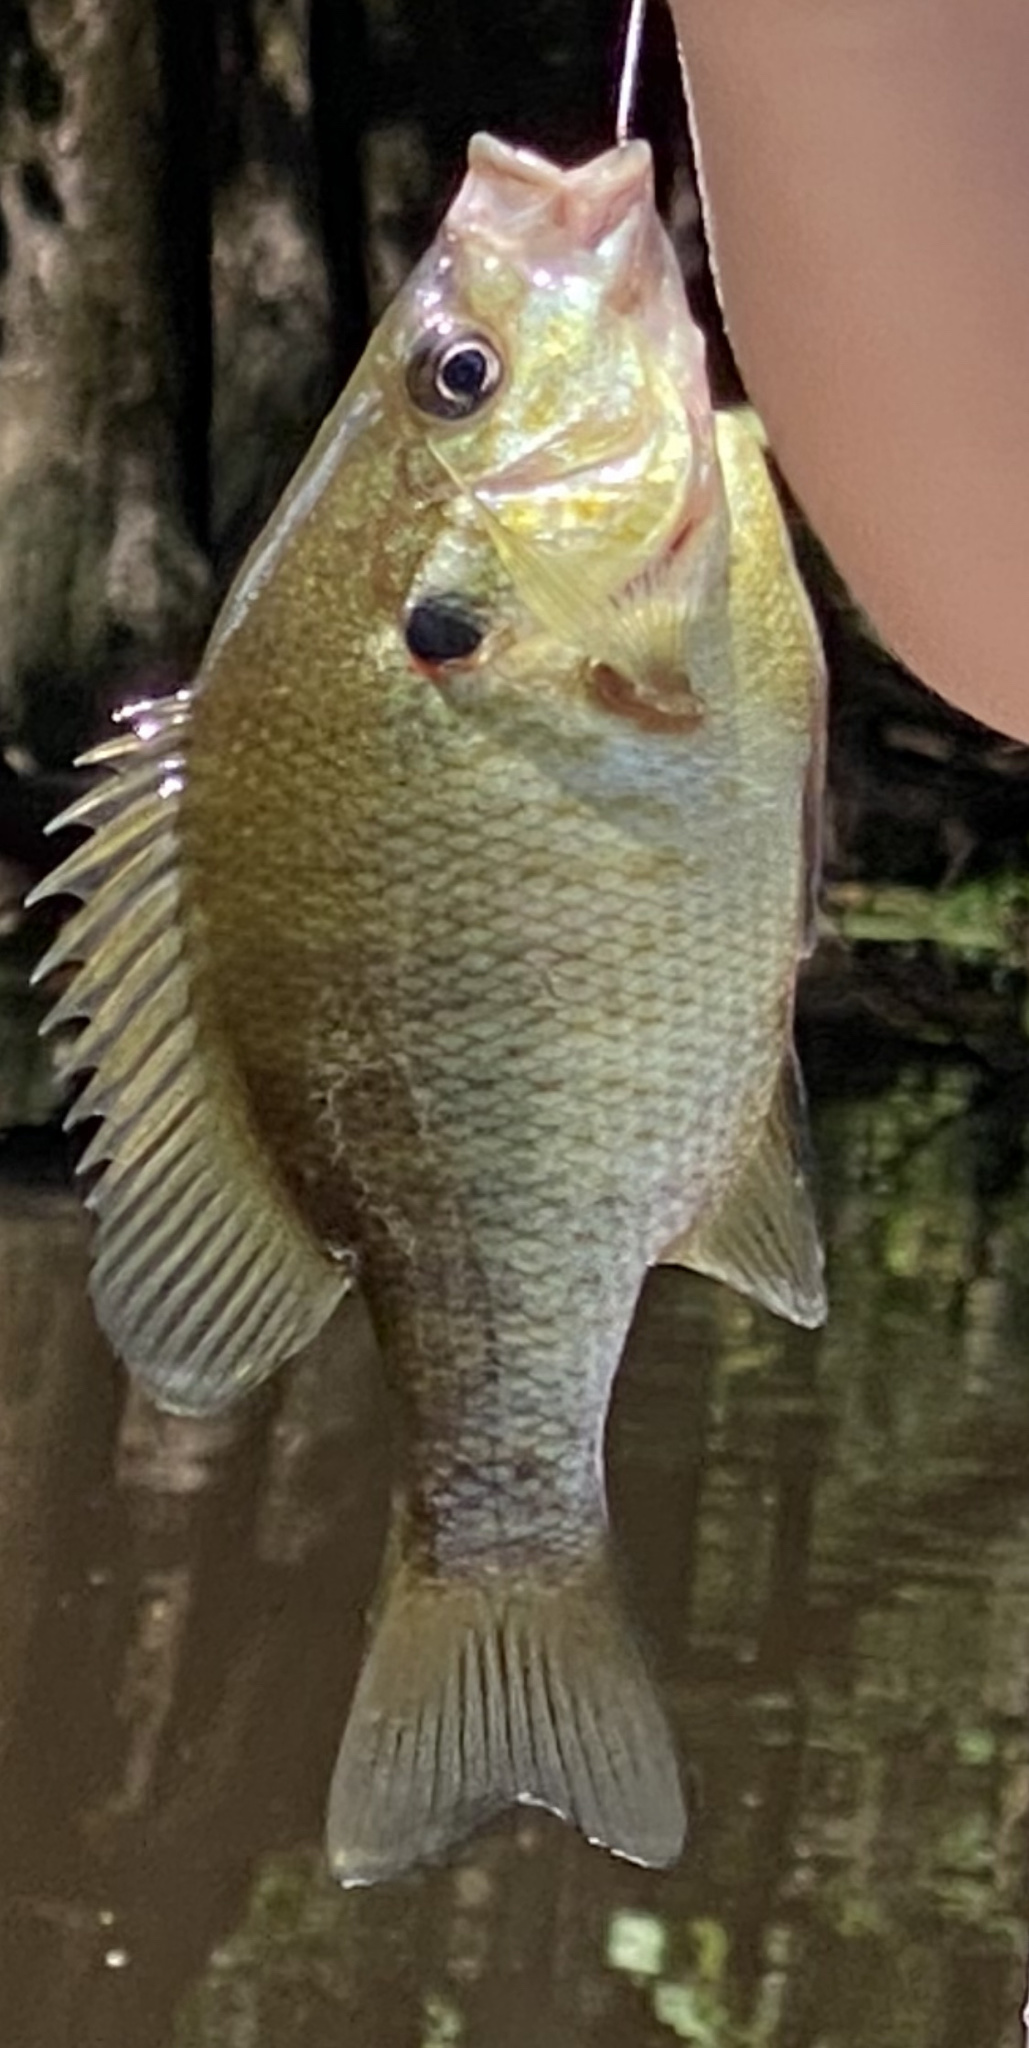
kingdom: Animalia
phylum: Chordata
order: Perciformes
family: Centrarchidae
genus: Lepomis
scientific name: Lepomis microlophus
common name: Redear sunfish
